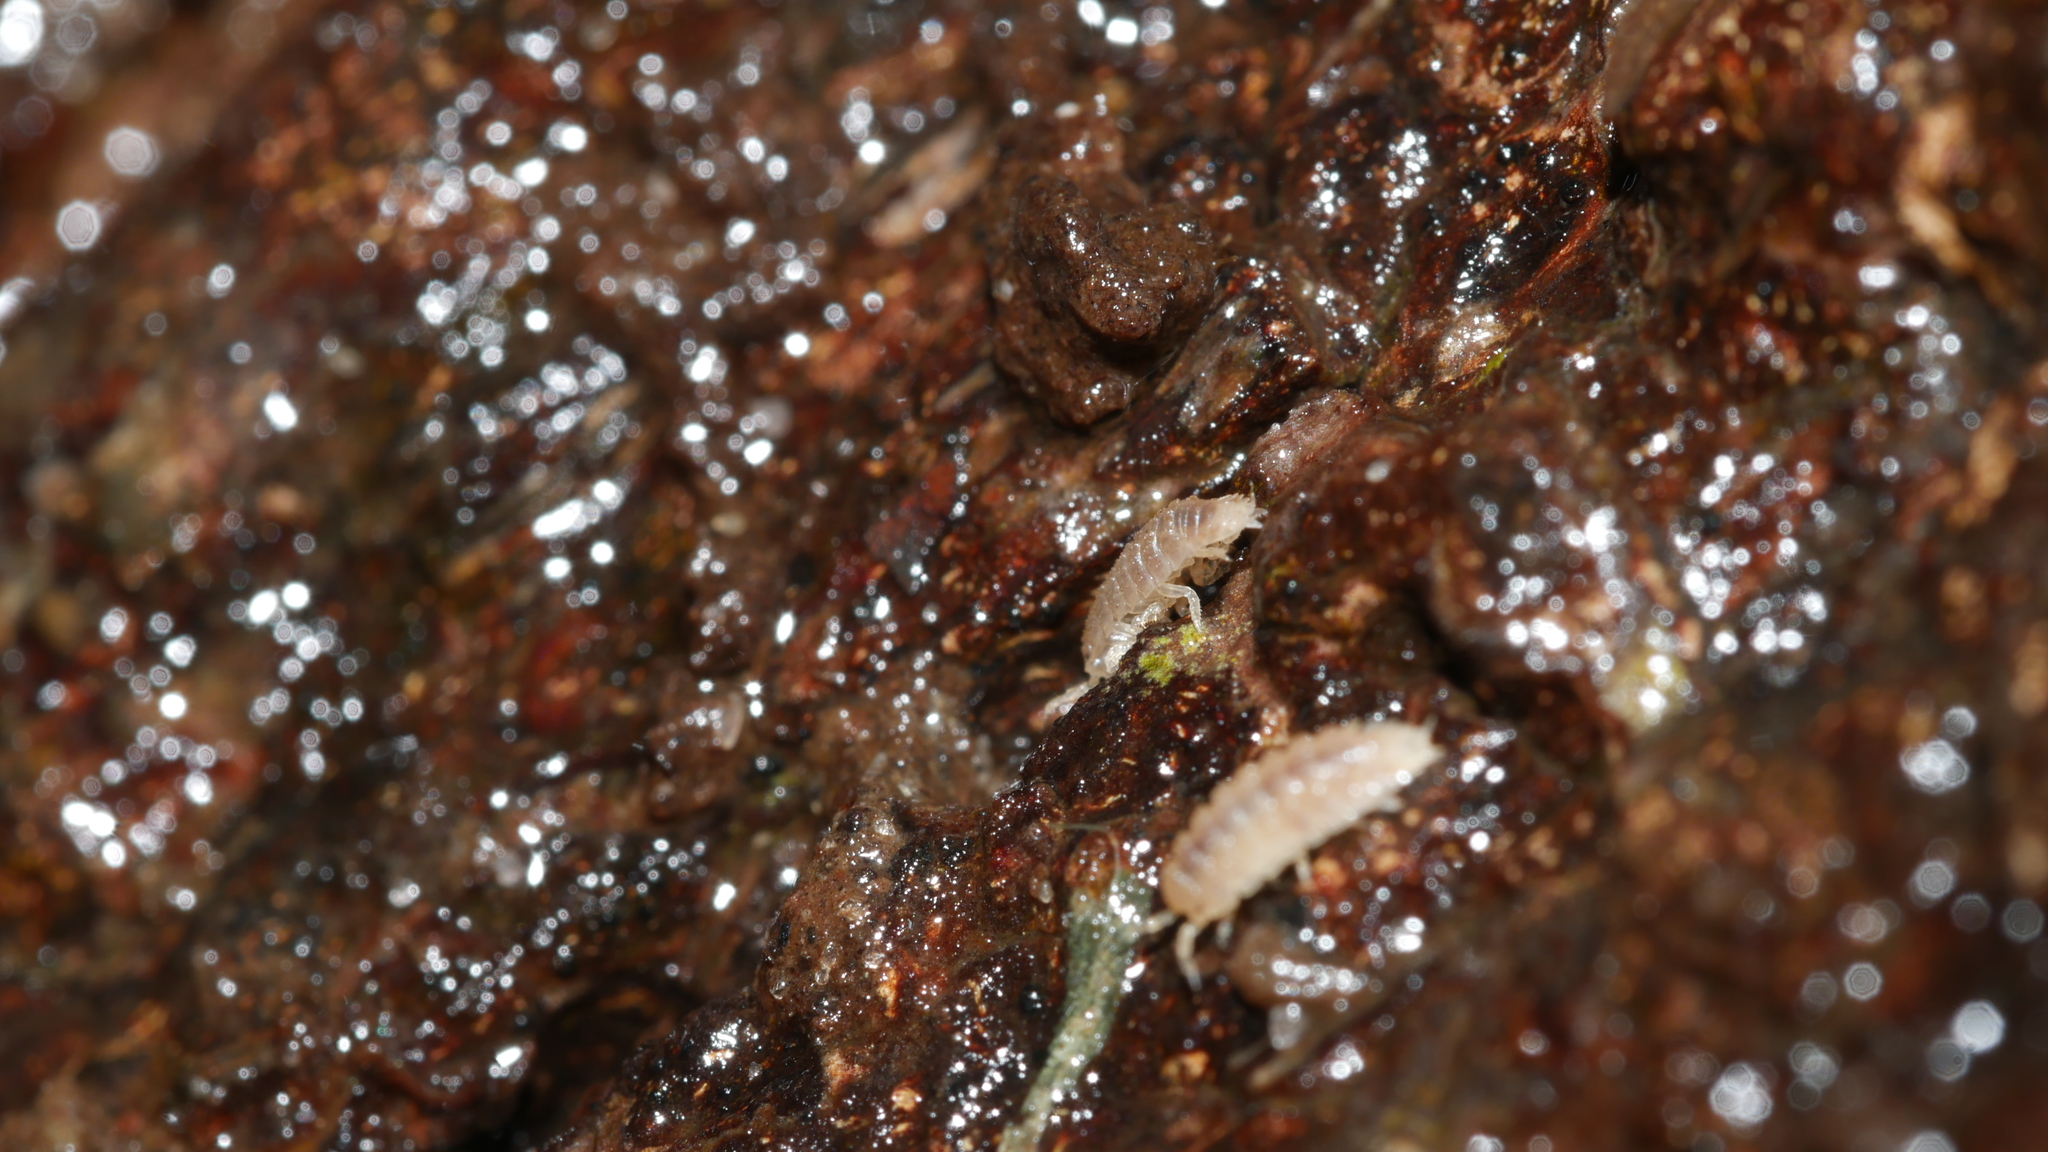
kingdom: Animalia
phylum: Arthropoda
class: Malacostraca
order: Isopoda
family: Trichoniscidae
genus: Haplophthalmus
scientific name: Haplophthalmus danicus
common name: Pillbug
